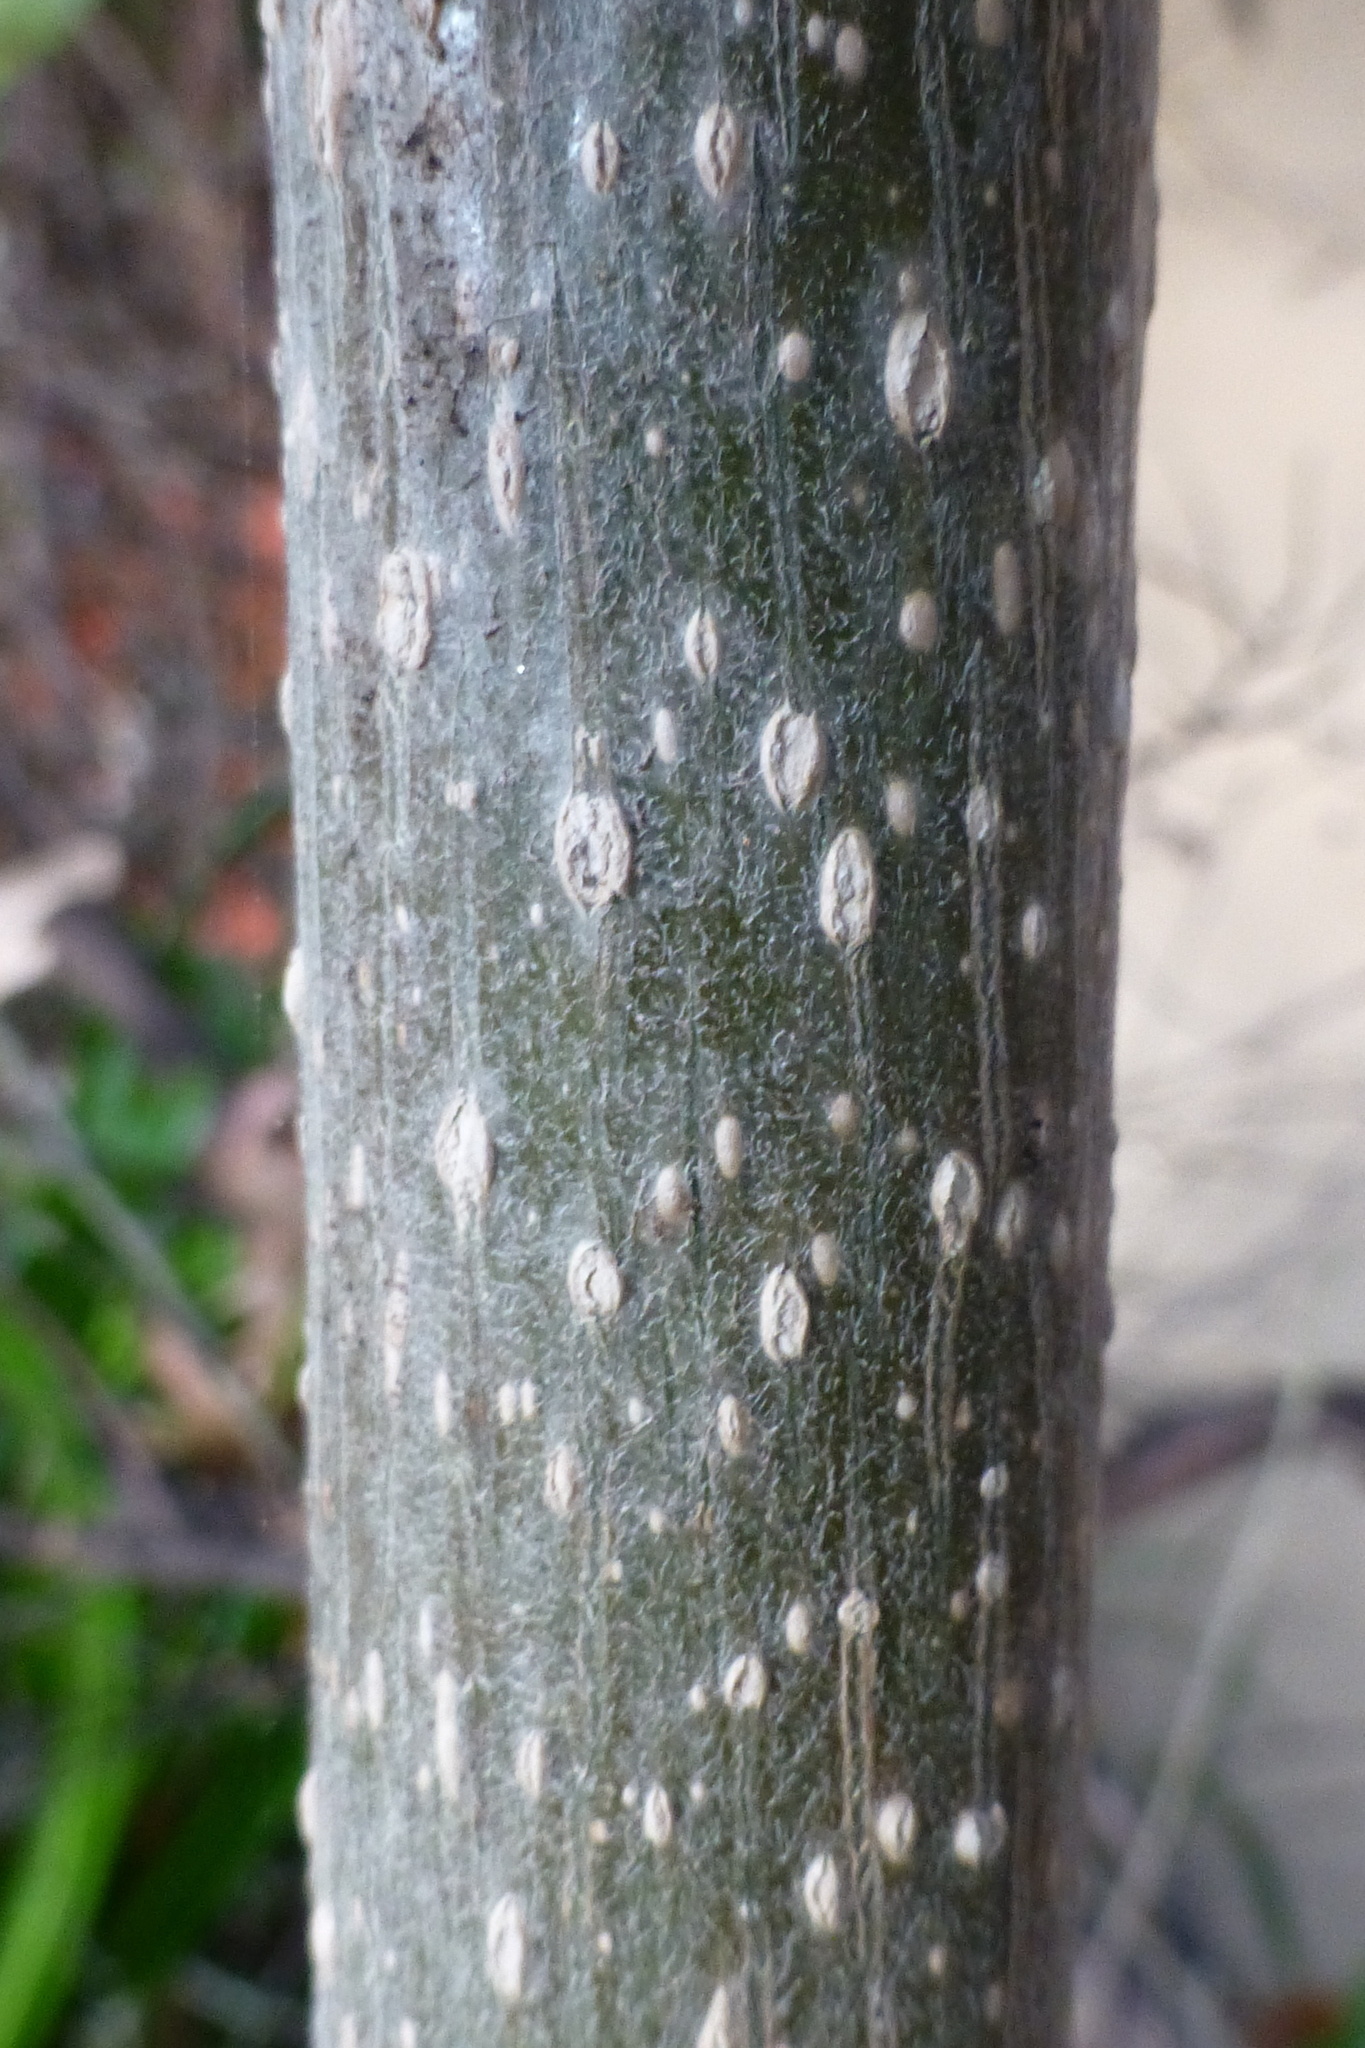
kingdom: Plantae
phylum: Tracheophyta
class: Magnoliopsida
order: Lamiales
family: Paulowniaceae
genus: Paulownia
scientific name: Paulownia tomentosa
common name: Foxglove-tree
